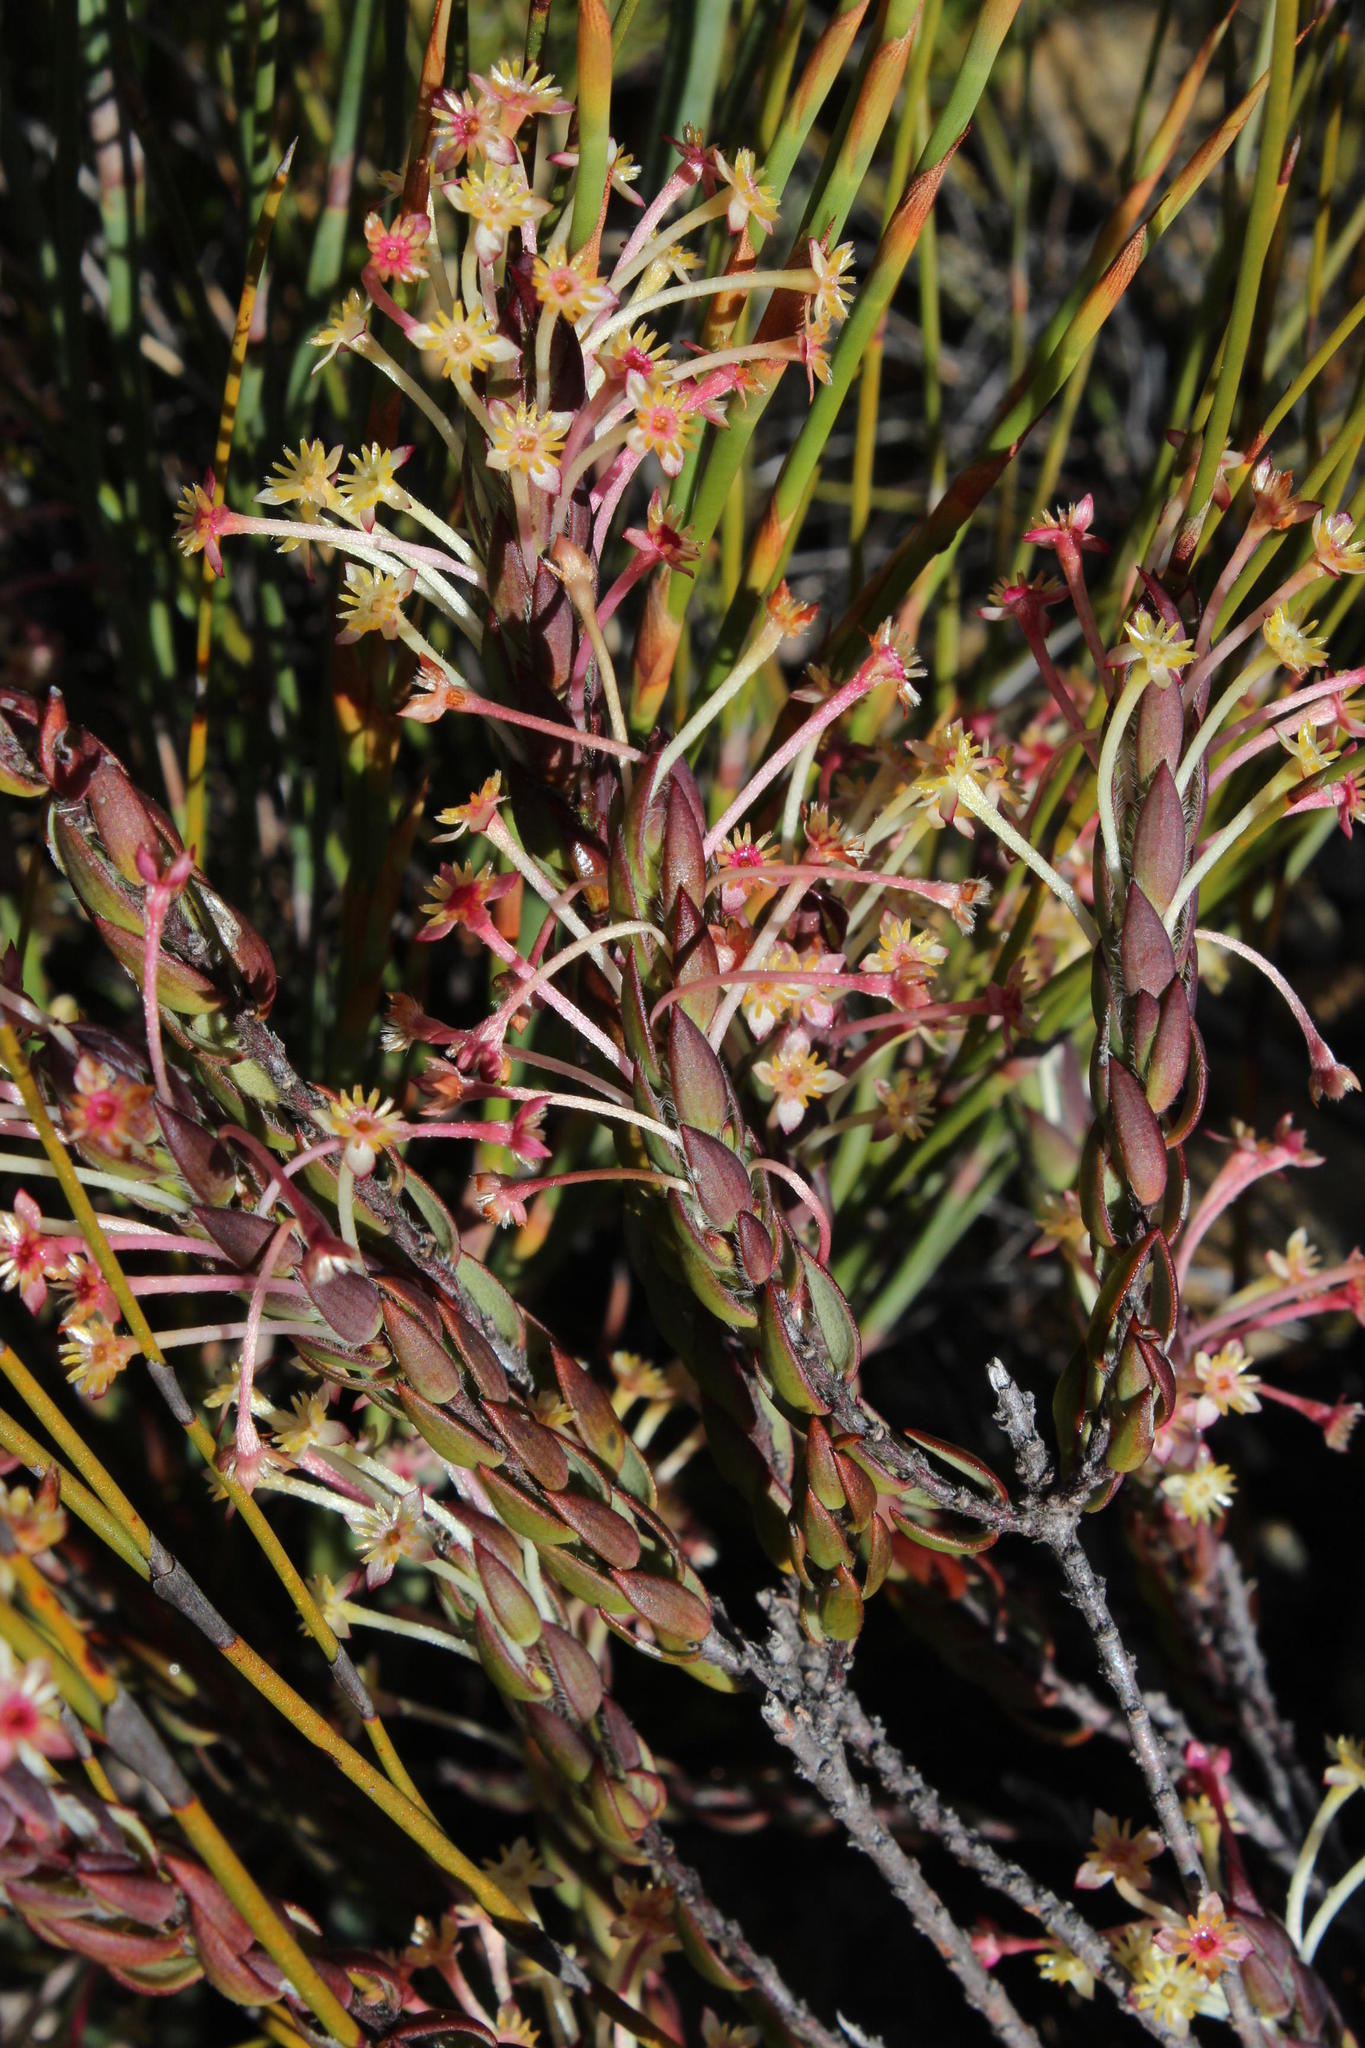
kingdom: Plantae
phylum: Tracheophyta
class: Magnoliopsida
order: Malvales
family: Thymelaeaceae
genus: Struthiola
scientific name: Struthiola argentea
